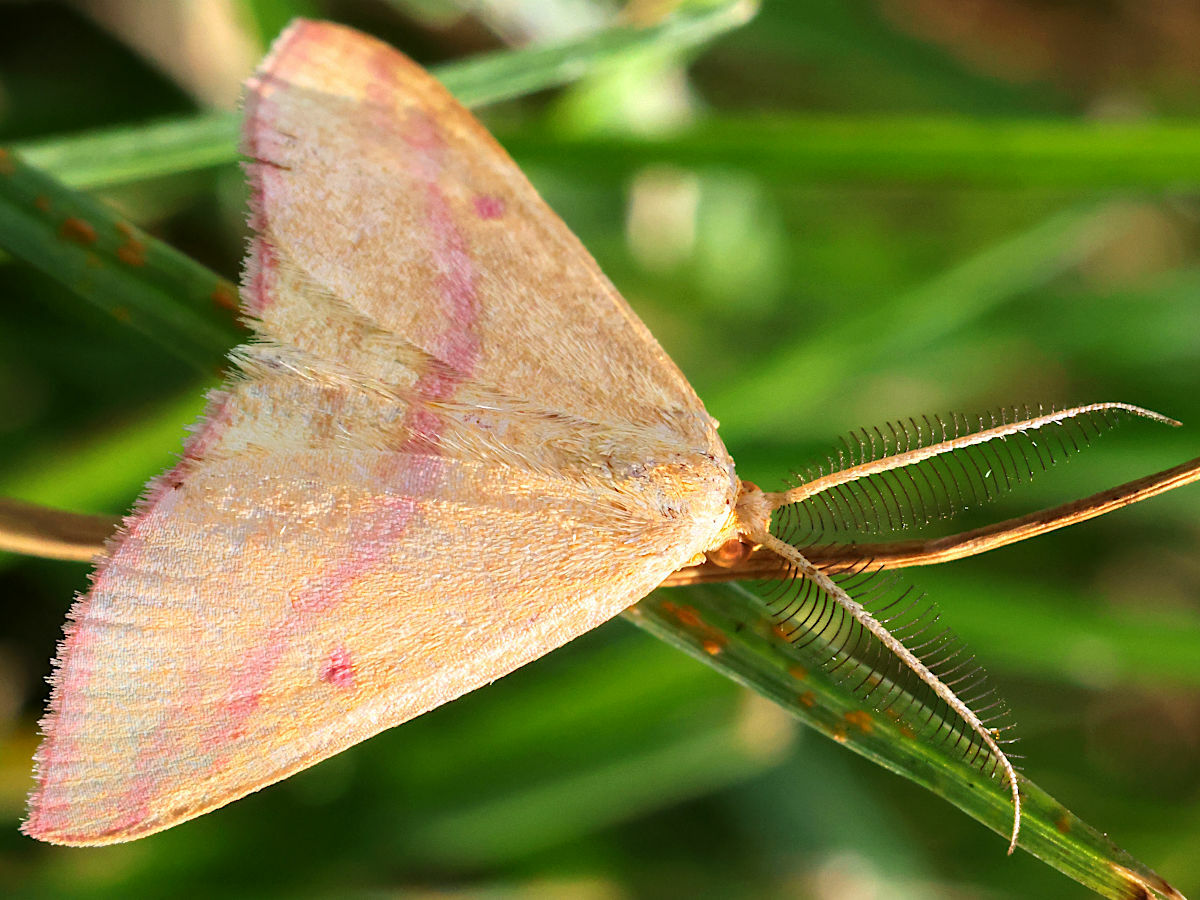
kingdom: Animalia
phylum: Arthropoda
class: Insecta
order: Lepidoptera
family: Geometridae
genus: Haematopis
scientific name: Haematopis grataria
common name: Chickweed geometer
